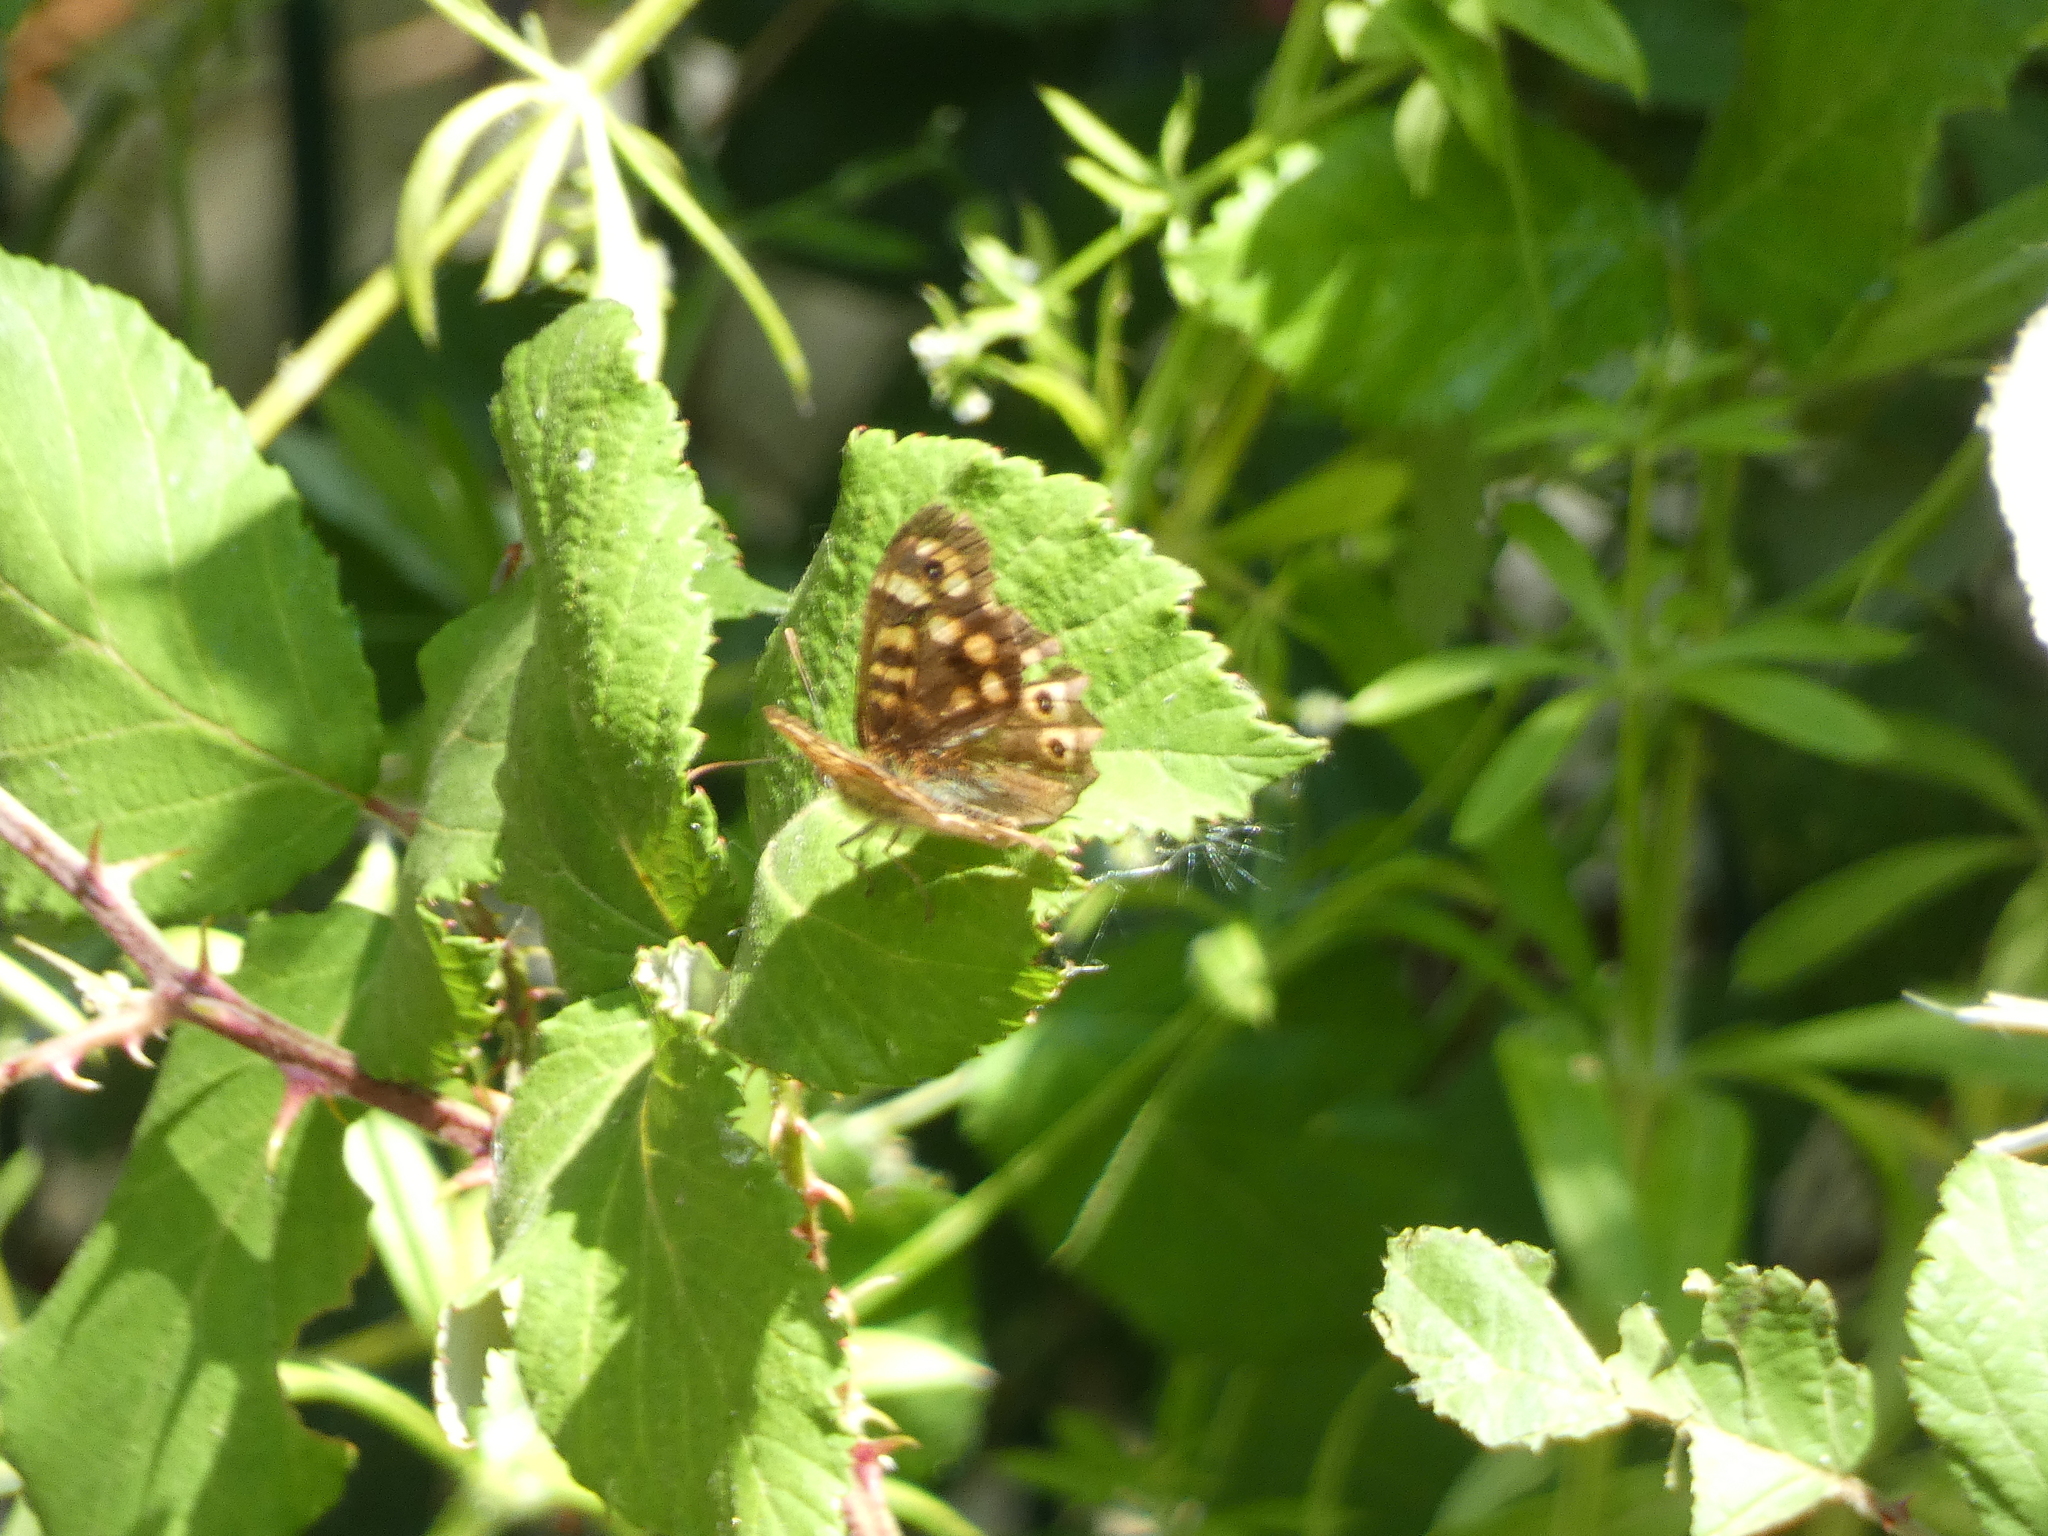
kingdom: Animalia
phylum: Arthropoda
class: Insecta
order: Lepidoptera
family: Nymphalidae
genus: Pararge
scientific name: Pararge aegeria
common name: Speckled wood
